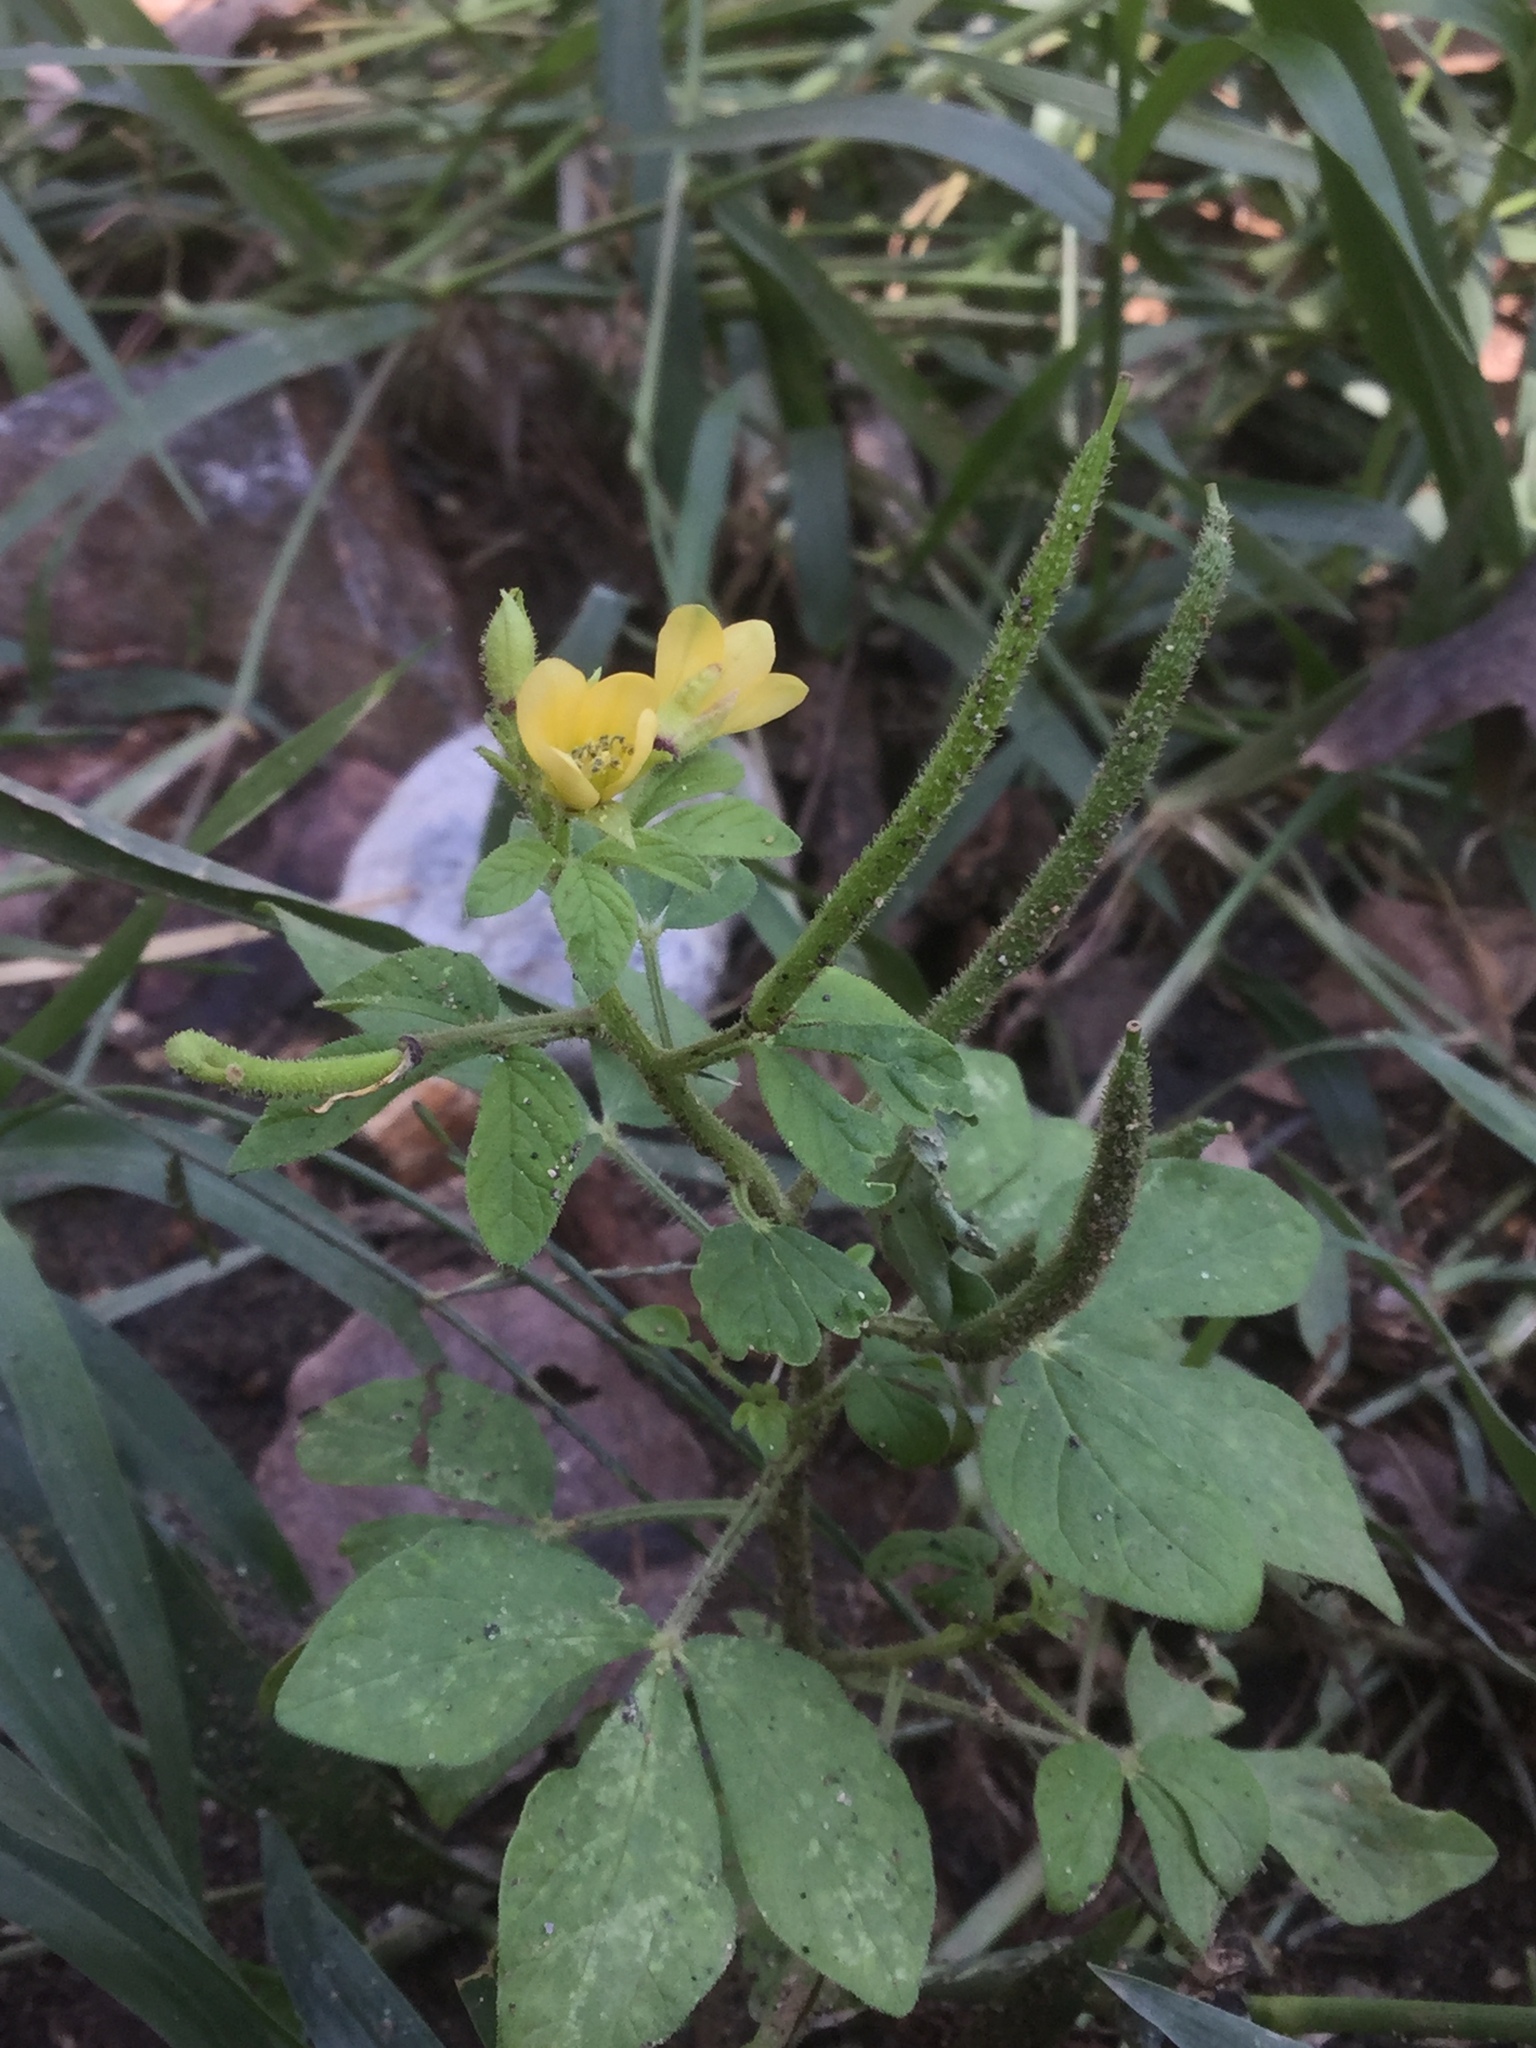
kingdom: Plantae
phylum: Tracheophyta
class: Magnoliopsida
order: Brassicales
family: Cleomaceae
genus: Arivela
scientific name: Arivela viscosa
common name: Asian spiderflower
